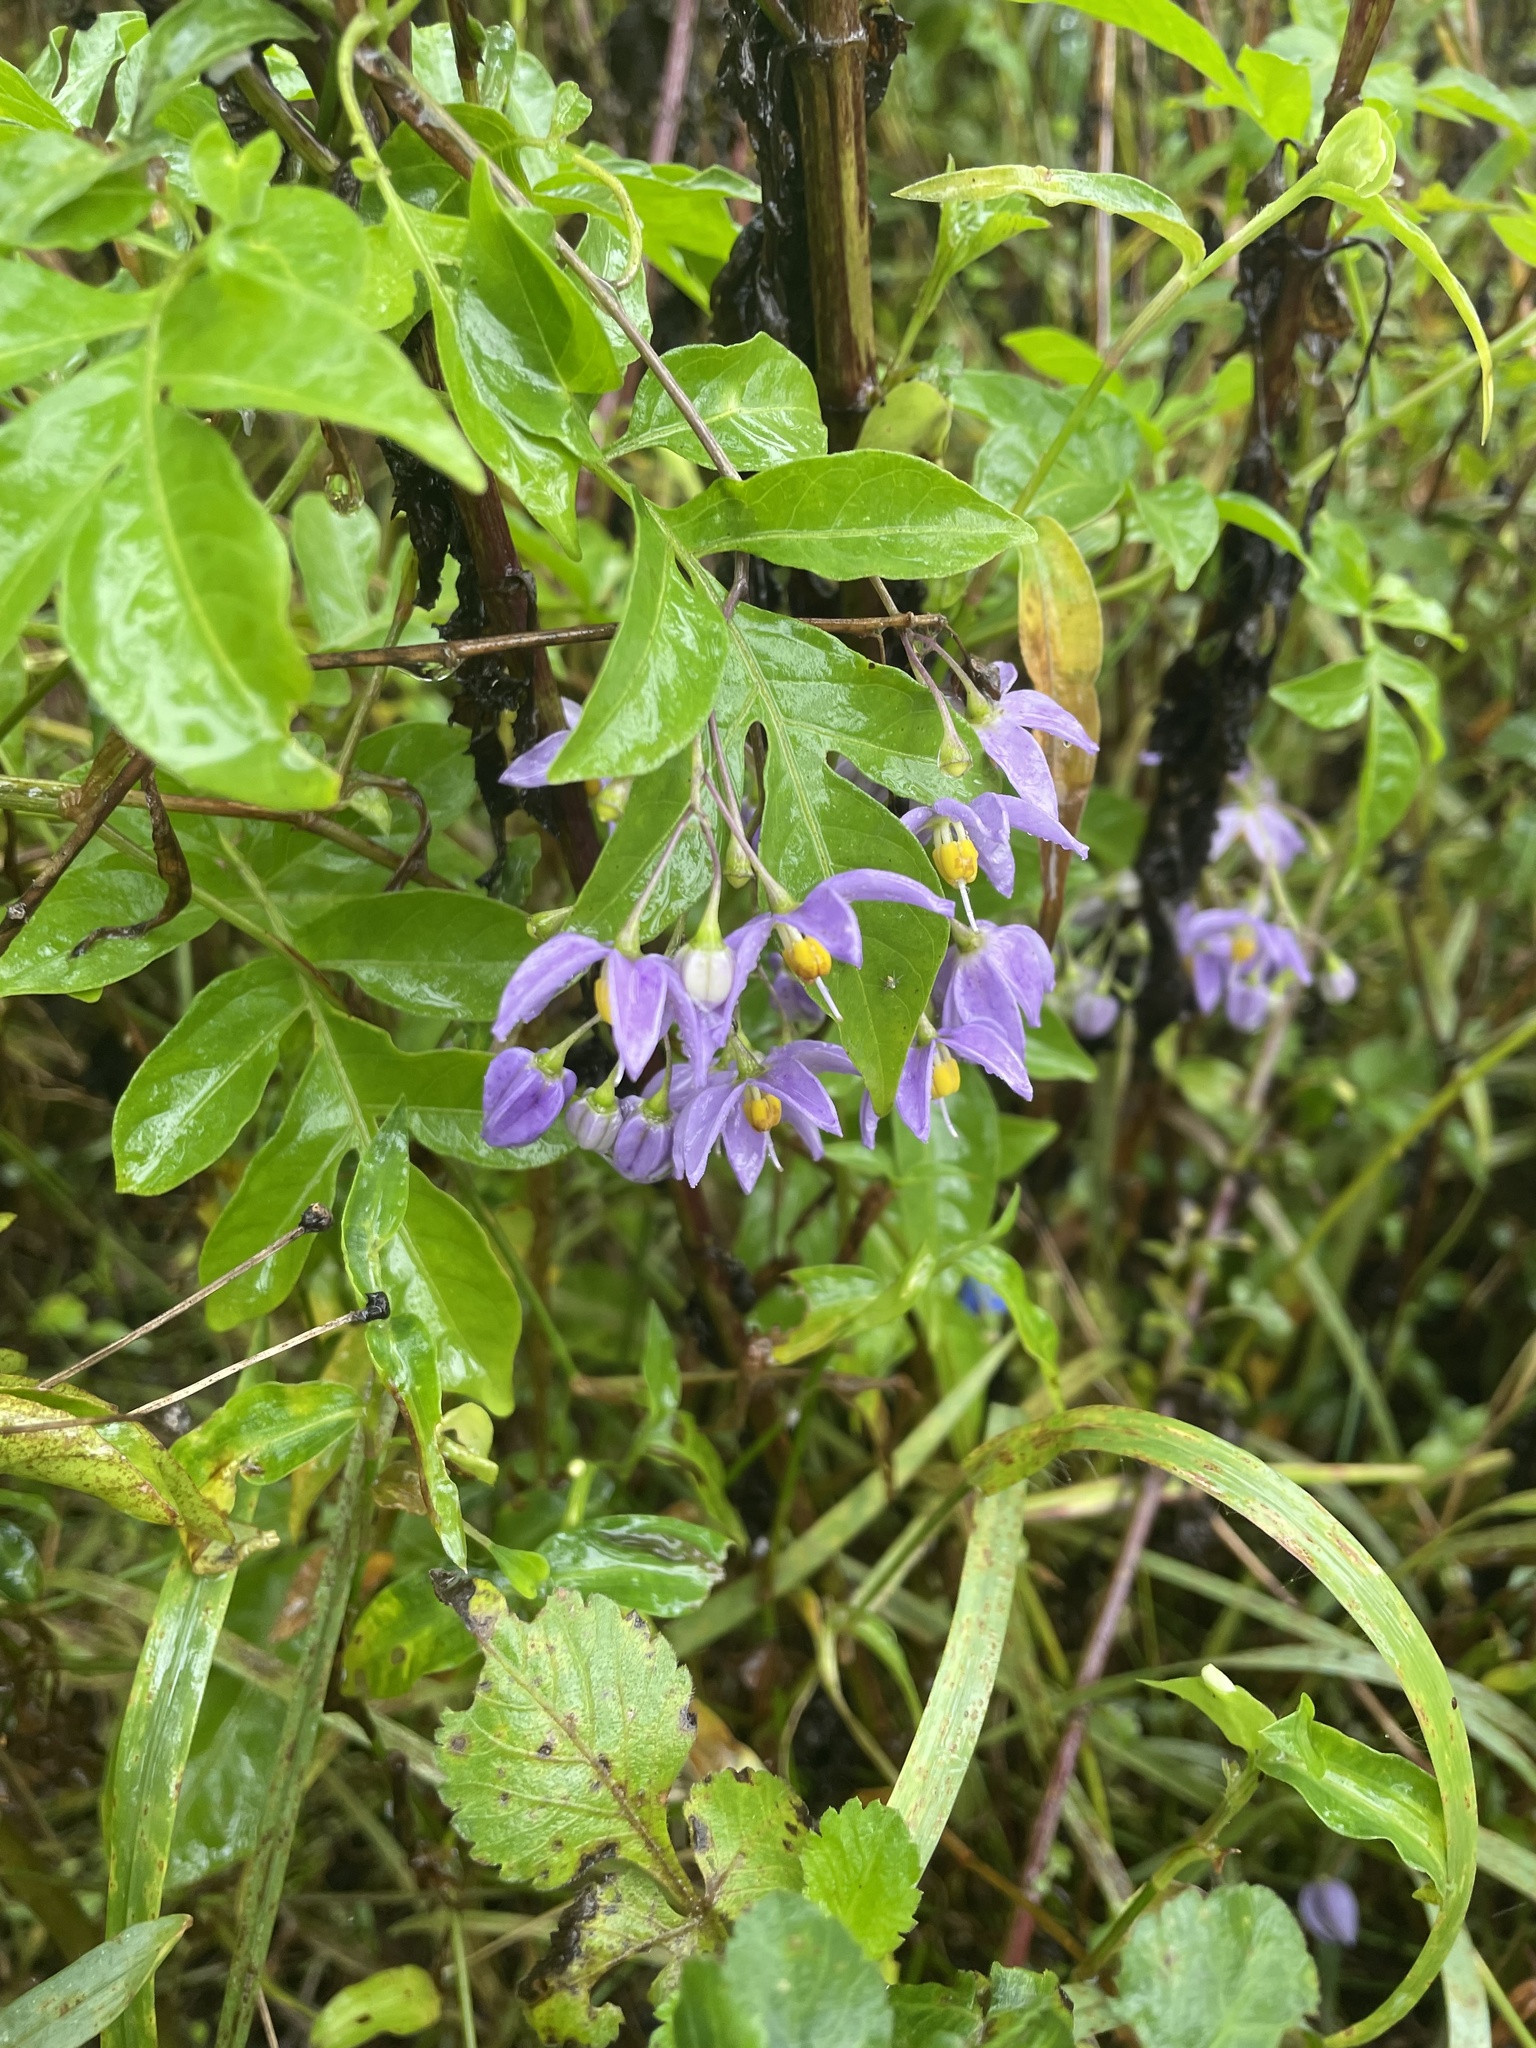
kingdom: Plantae
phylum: Tracheophyta
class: Magnoliopsida
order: Solanales
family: Solanaceae
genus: Solanum
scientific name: Solanum seaforthianum
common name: Brazilian nightshade
